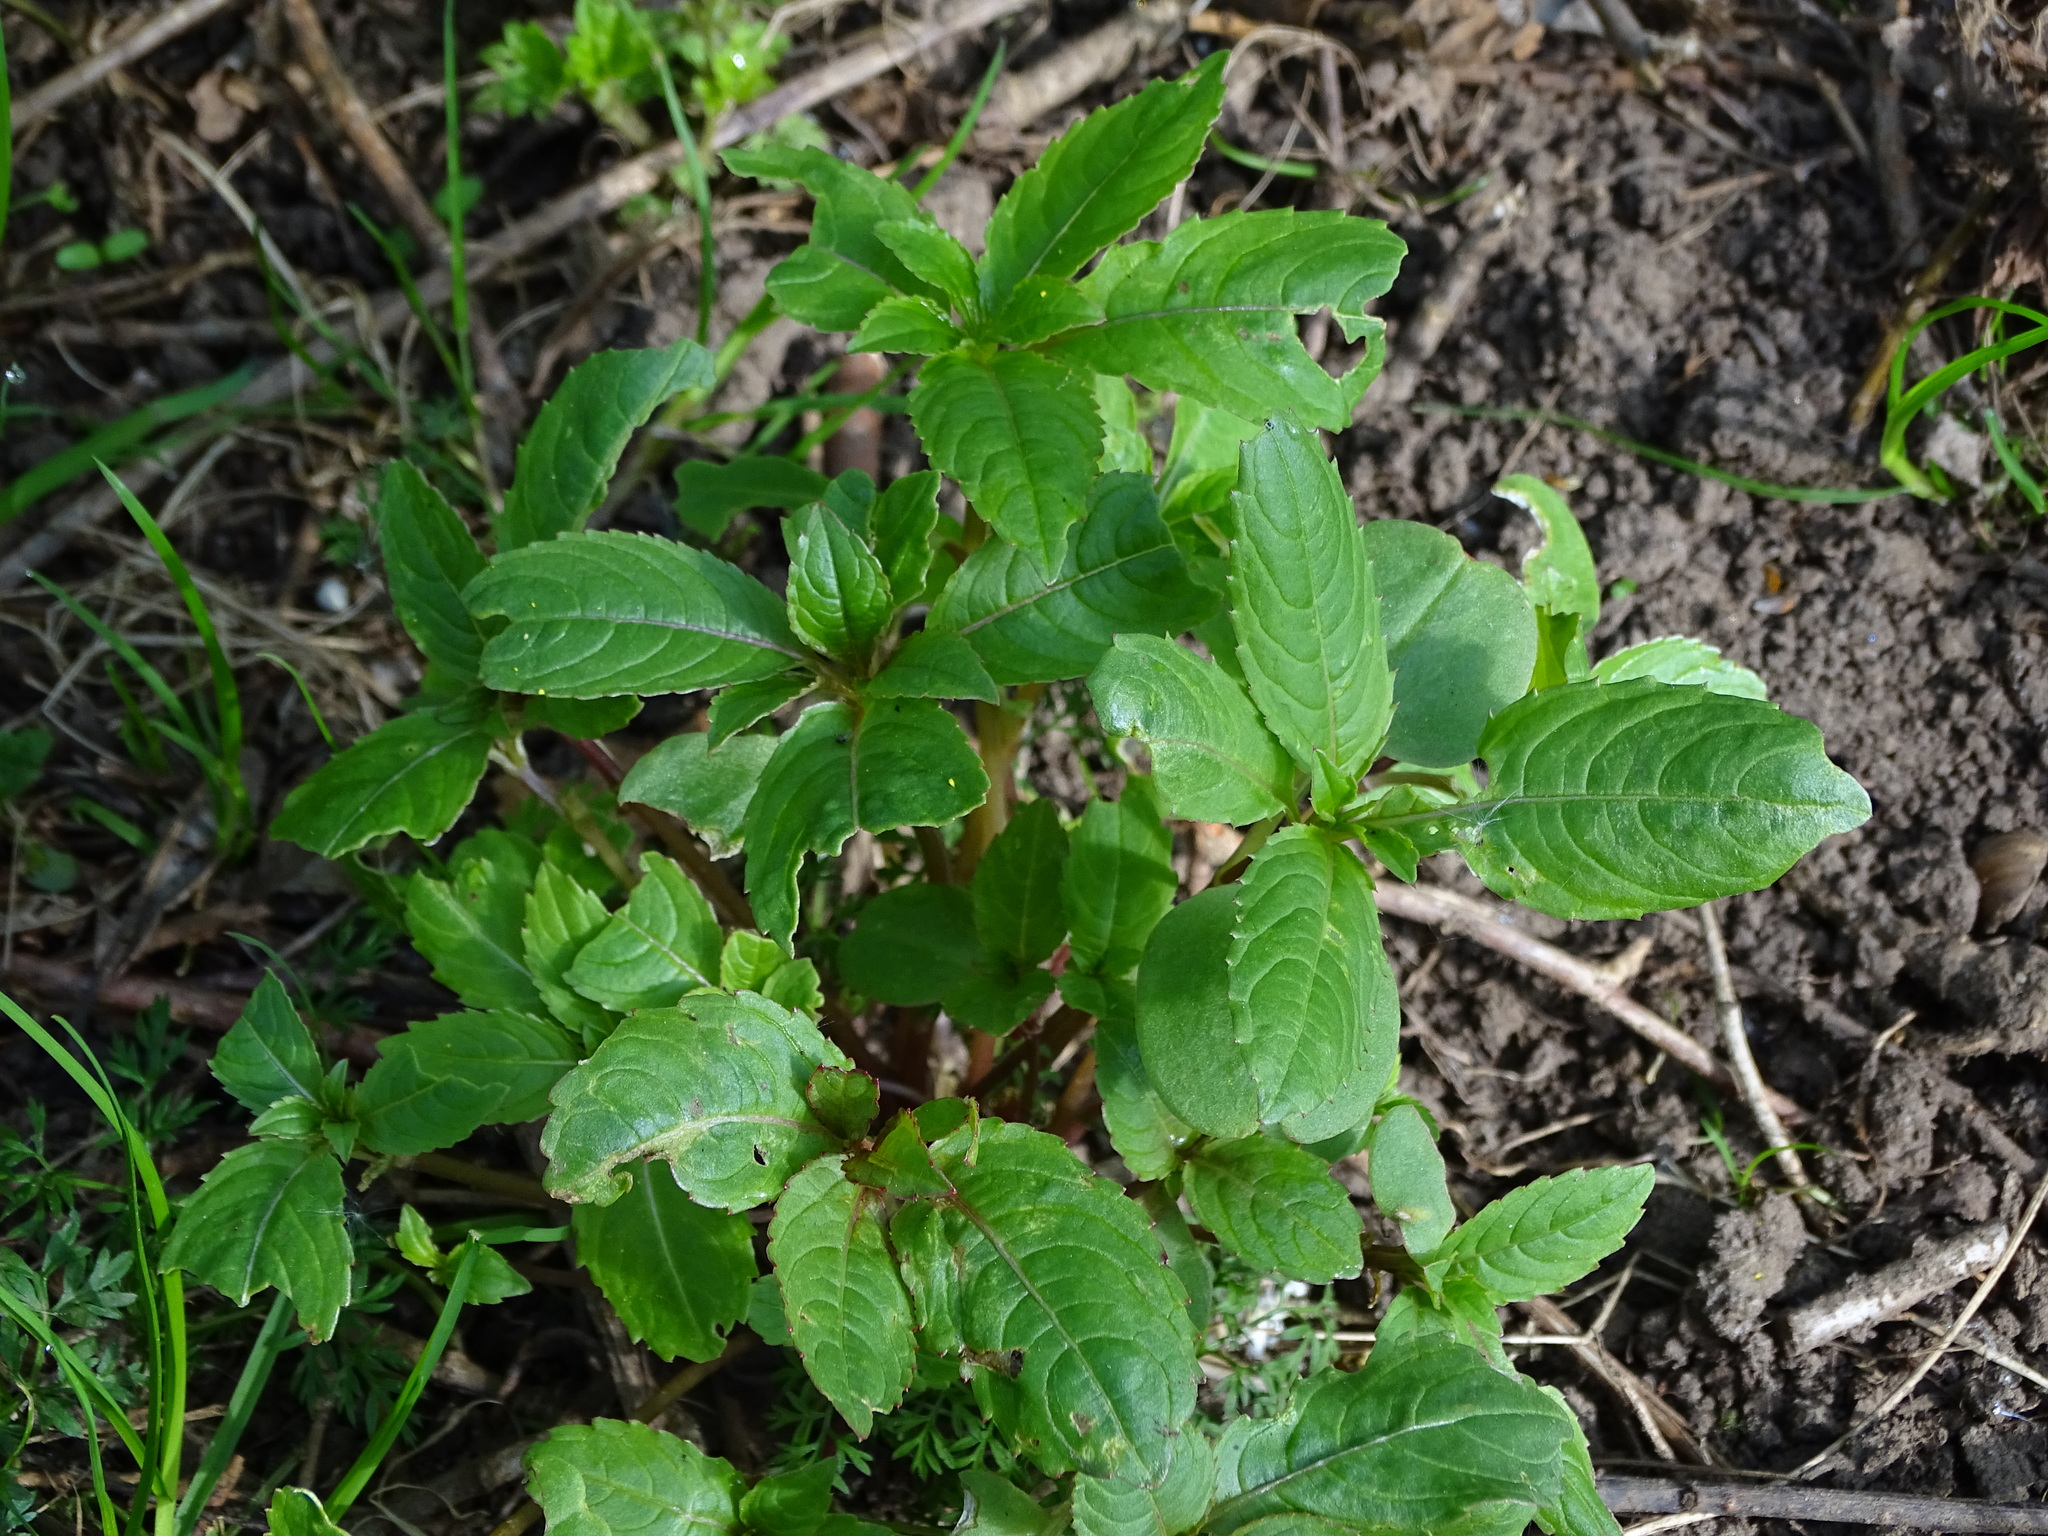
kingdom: Plantae
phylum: Tracheophyta
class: Magnoliopsida
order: Ericales
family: Balsaminaceae
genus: Impatiens
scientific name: Impatiens glandulifera
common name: Himalayan balsam
